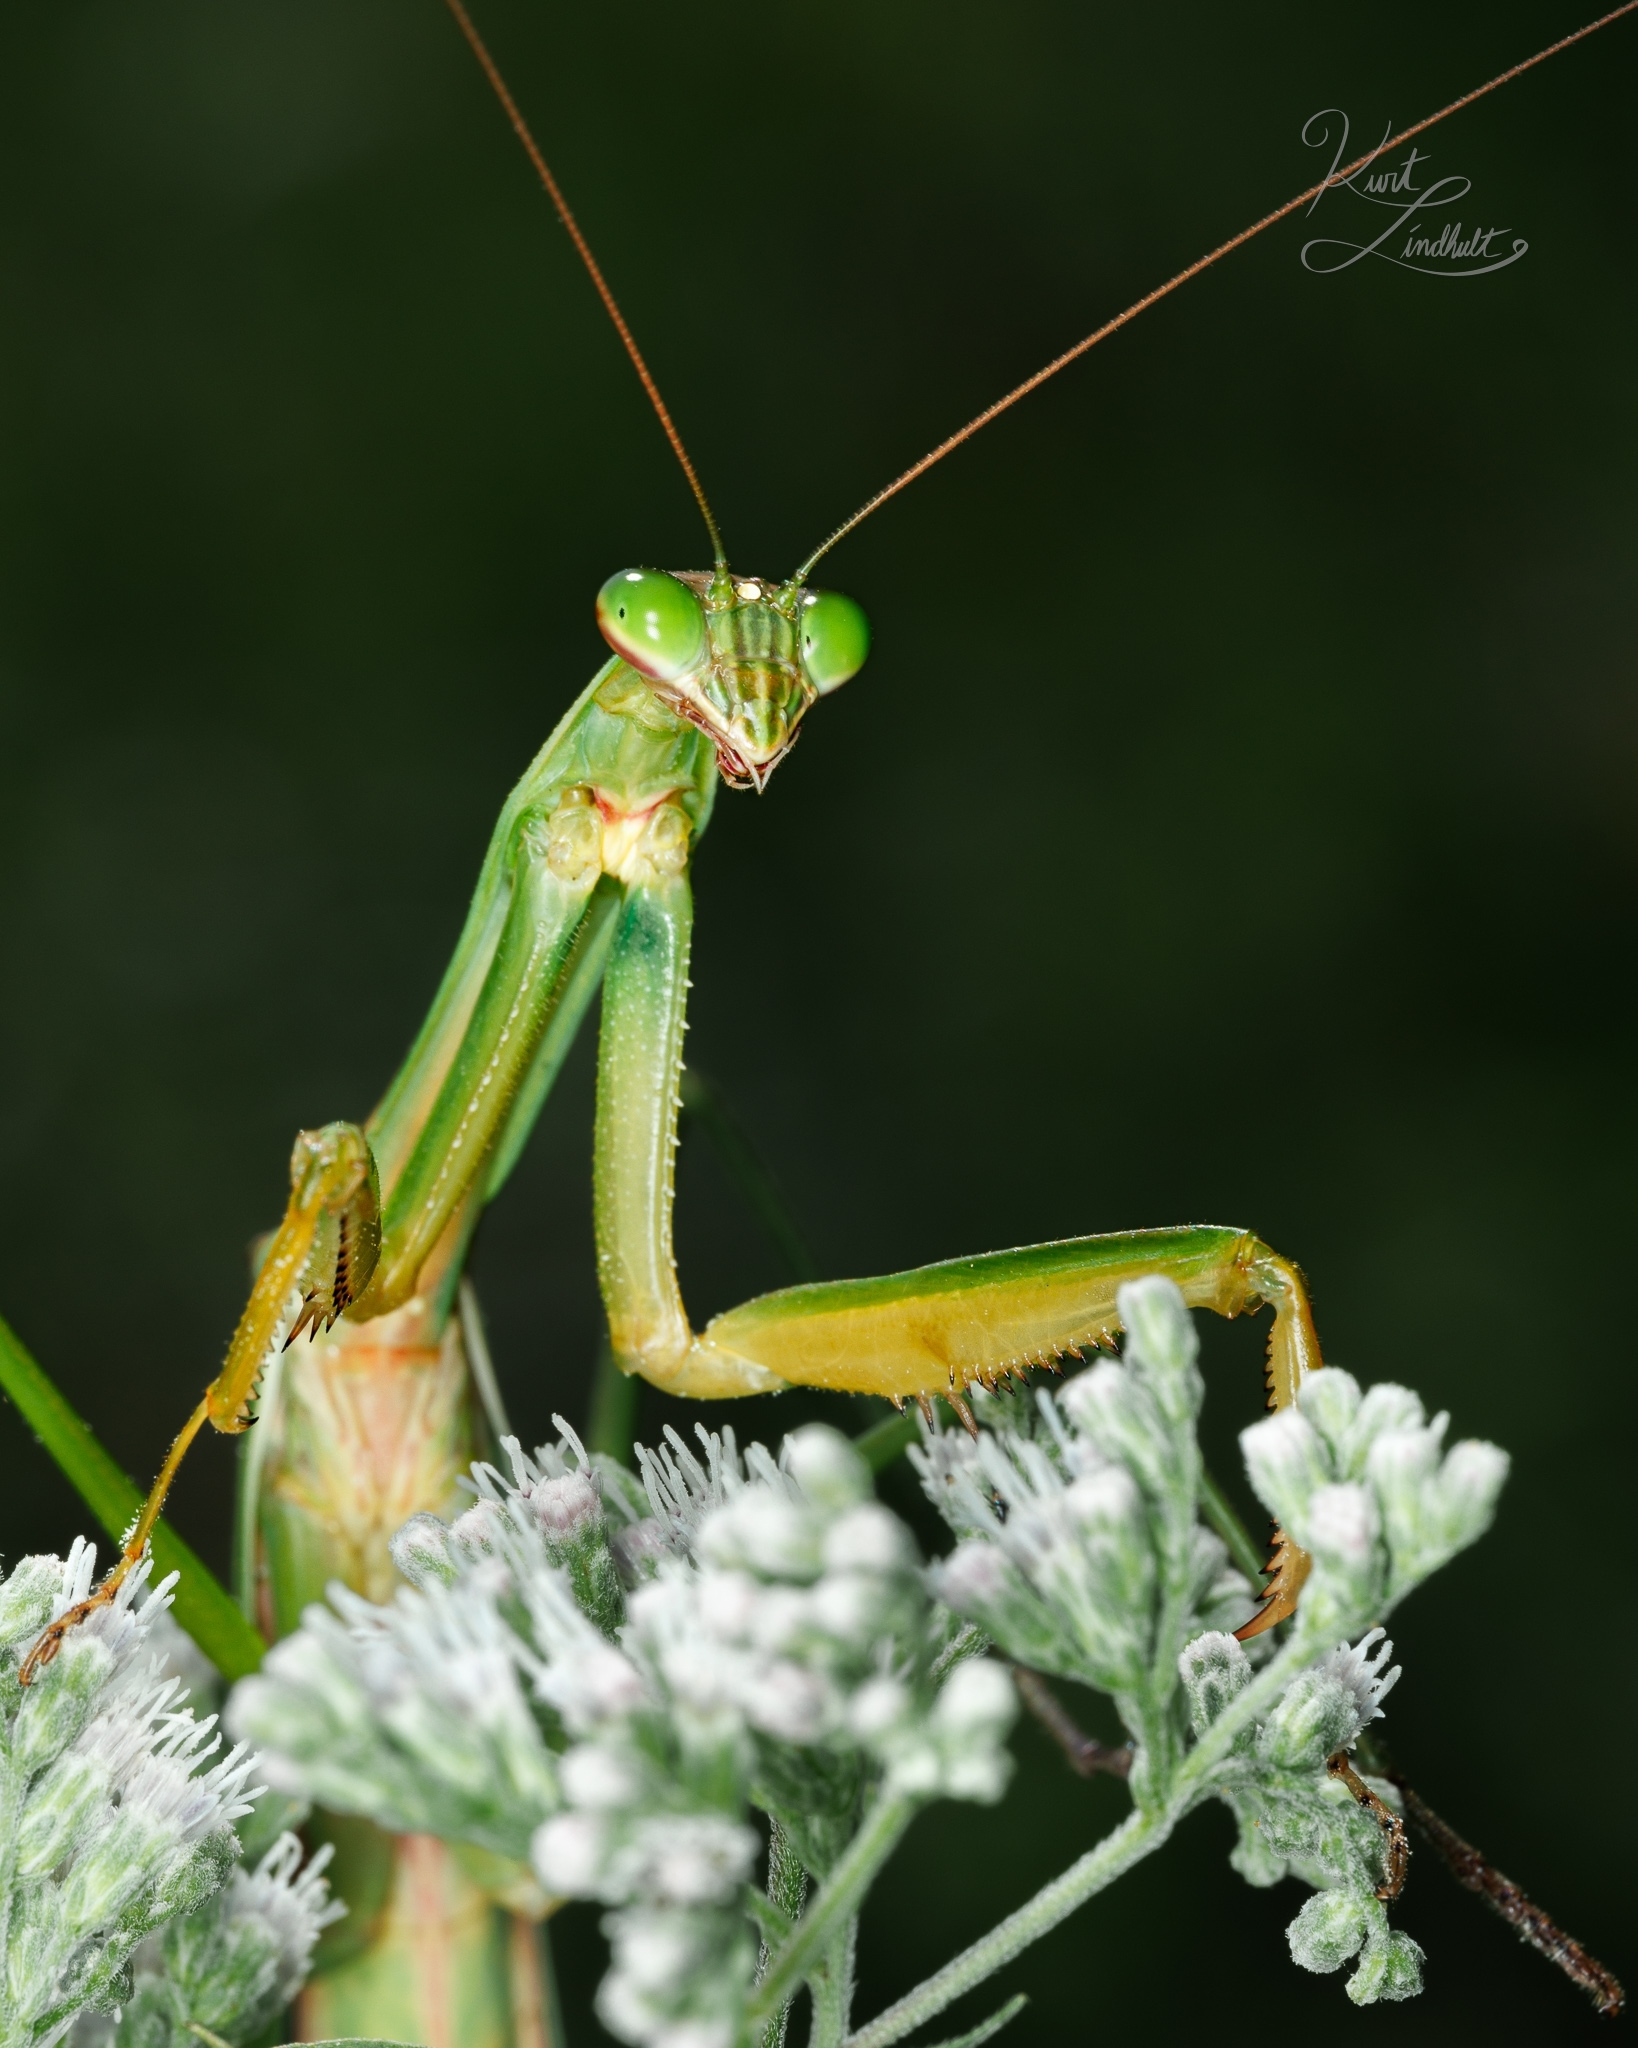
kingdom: Animalia
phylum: Arthropoda
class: Insecta
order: Mantodea
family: Mantidae
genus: Tenodera
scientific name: Tenodera sinensis
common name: Chinese mantis
